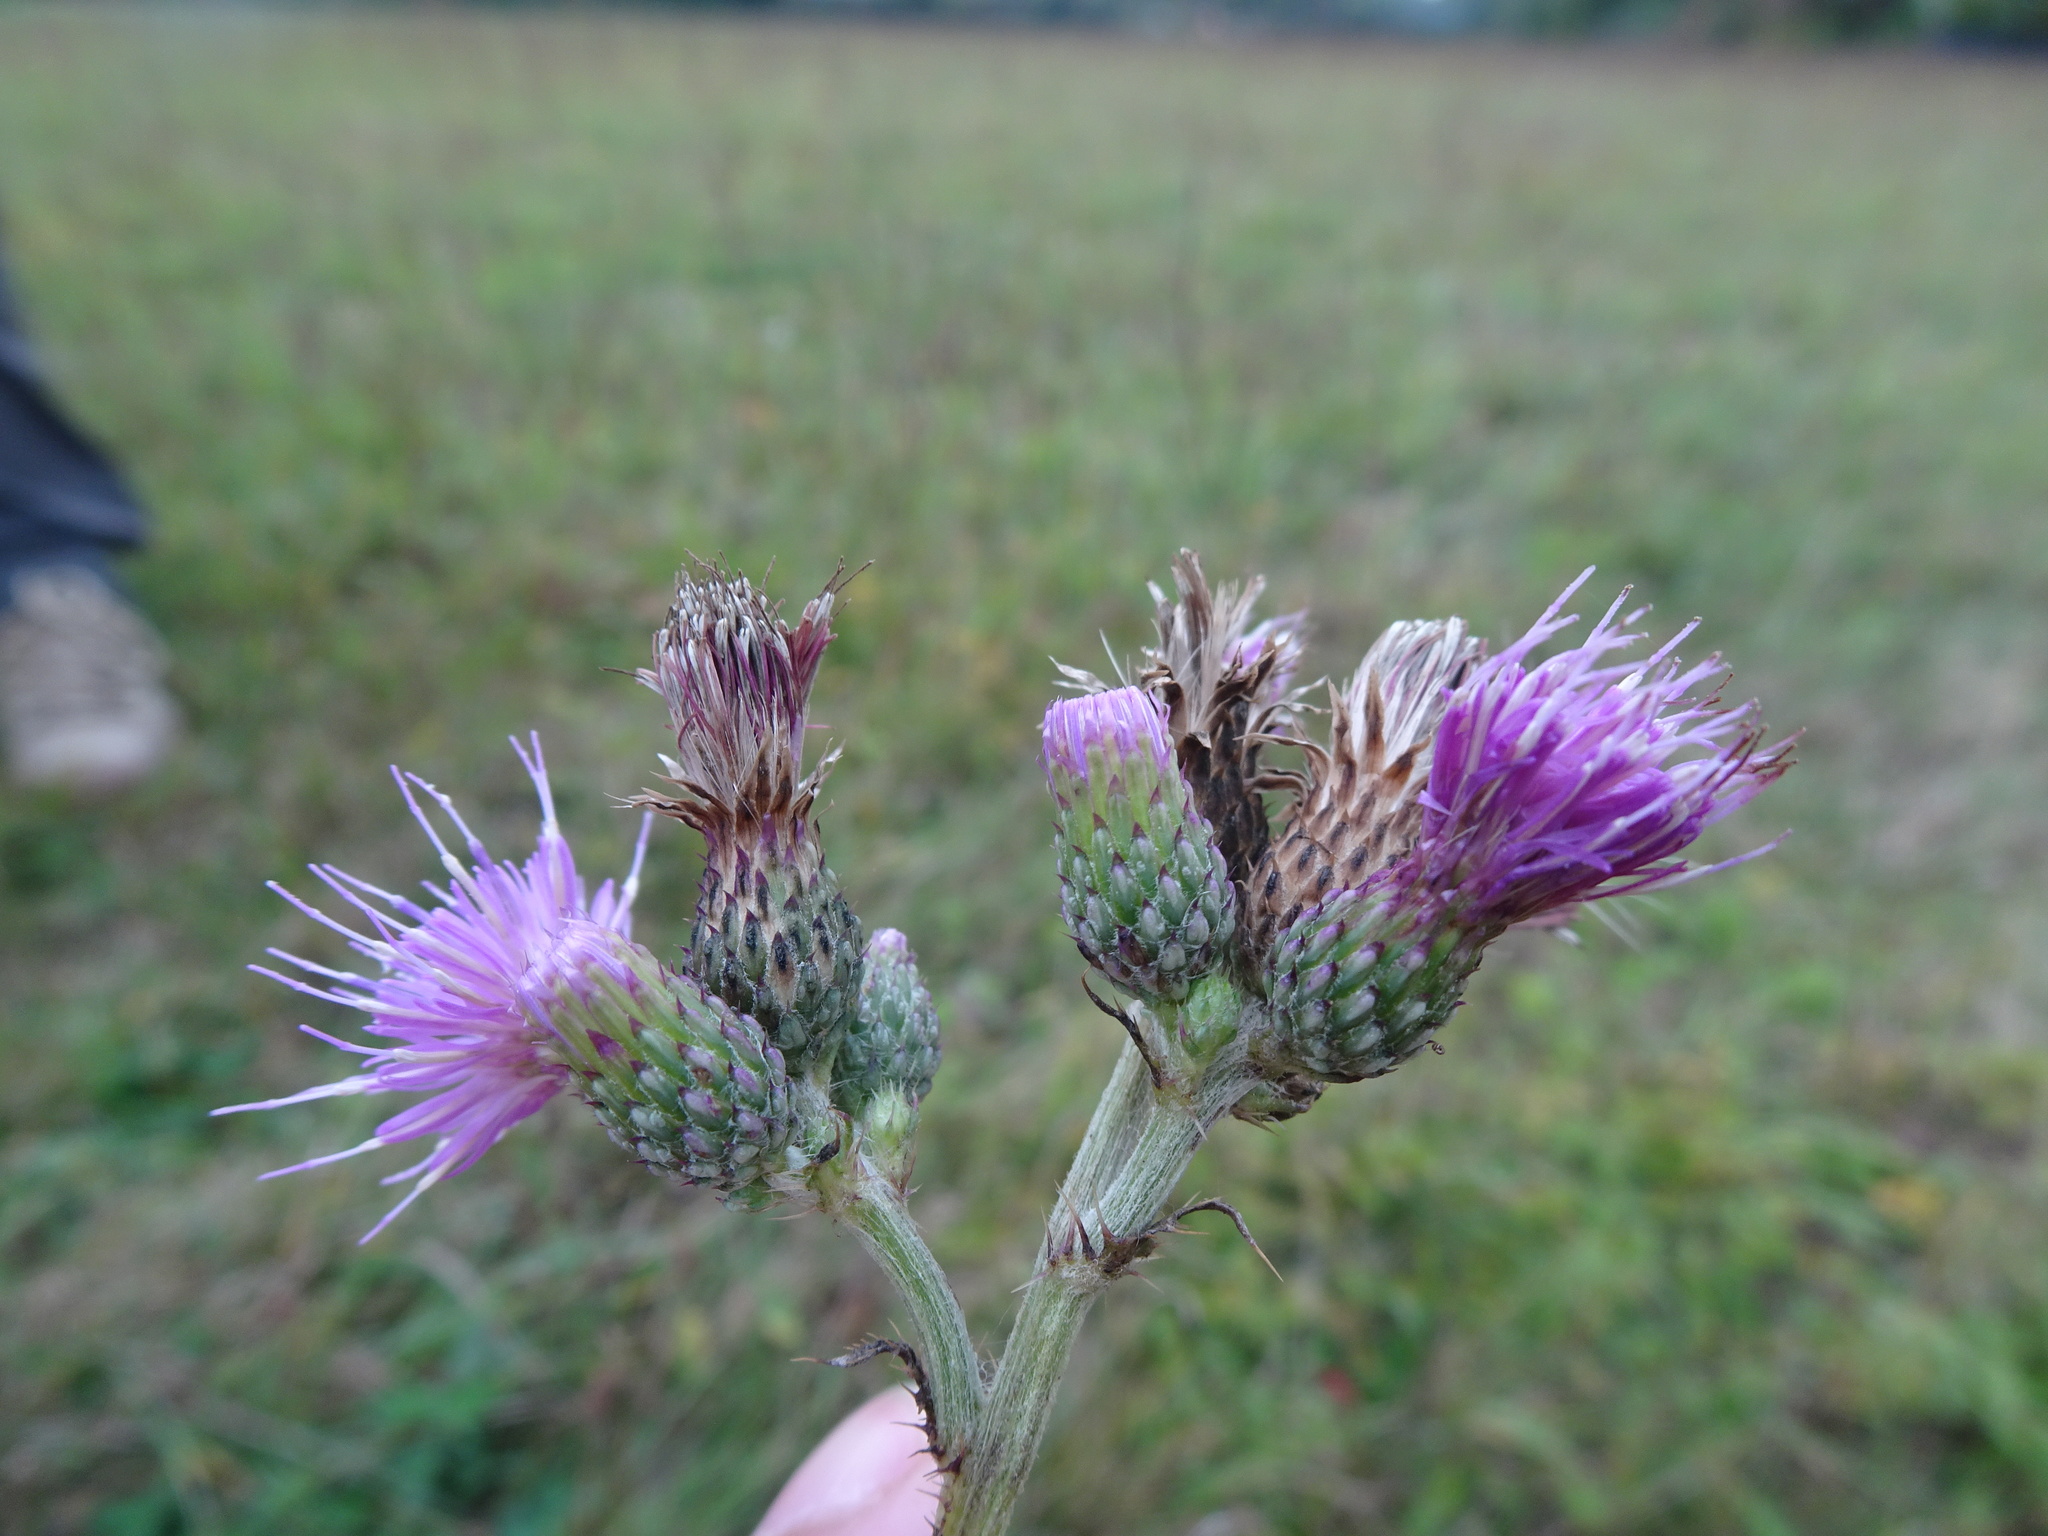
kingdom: Plantae
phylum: Tracheophyta
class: Magnoliopsida
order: Asterales
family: Asteraceae
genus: Cirsium
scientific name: Cirsium palustre
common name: Marsh thistle
